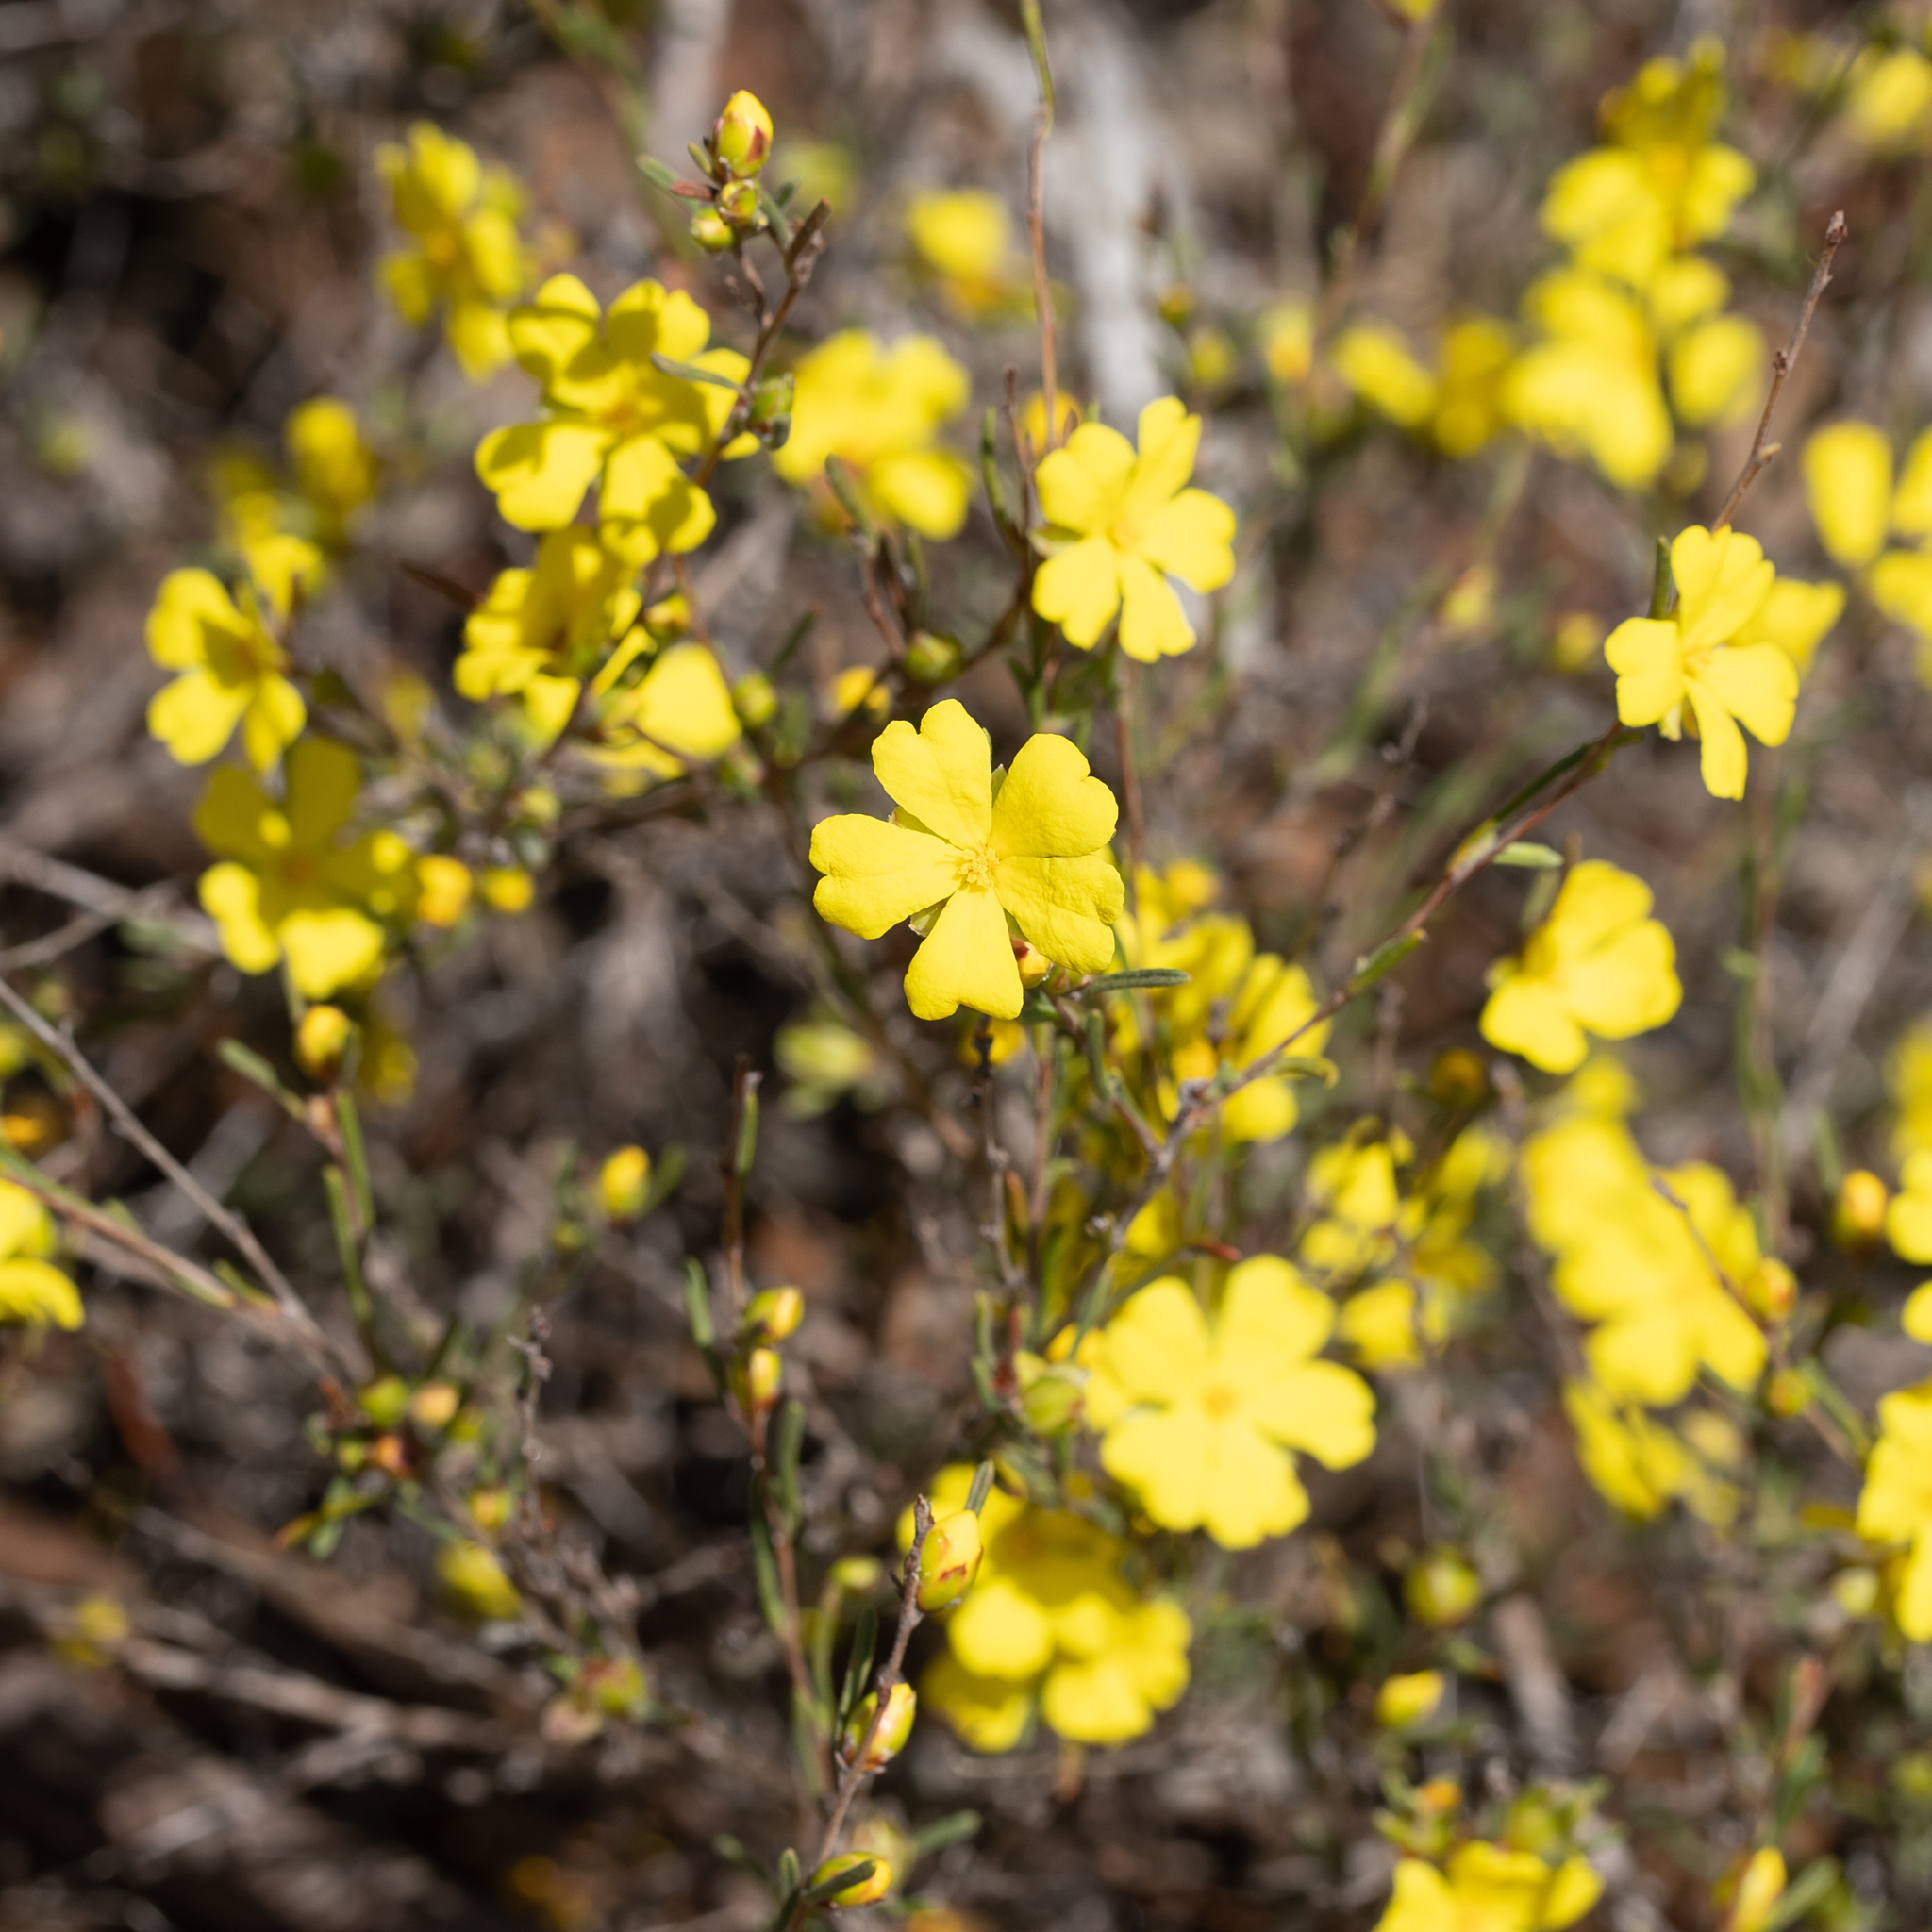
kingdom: Plantae
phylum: Tracheophyta
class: Magnoliopsida
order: Dilleniales
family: Dilleniaceae
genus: Hibbertia
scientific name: Hibbertia virgata
